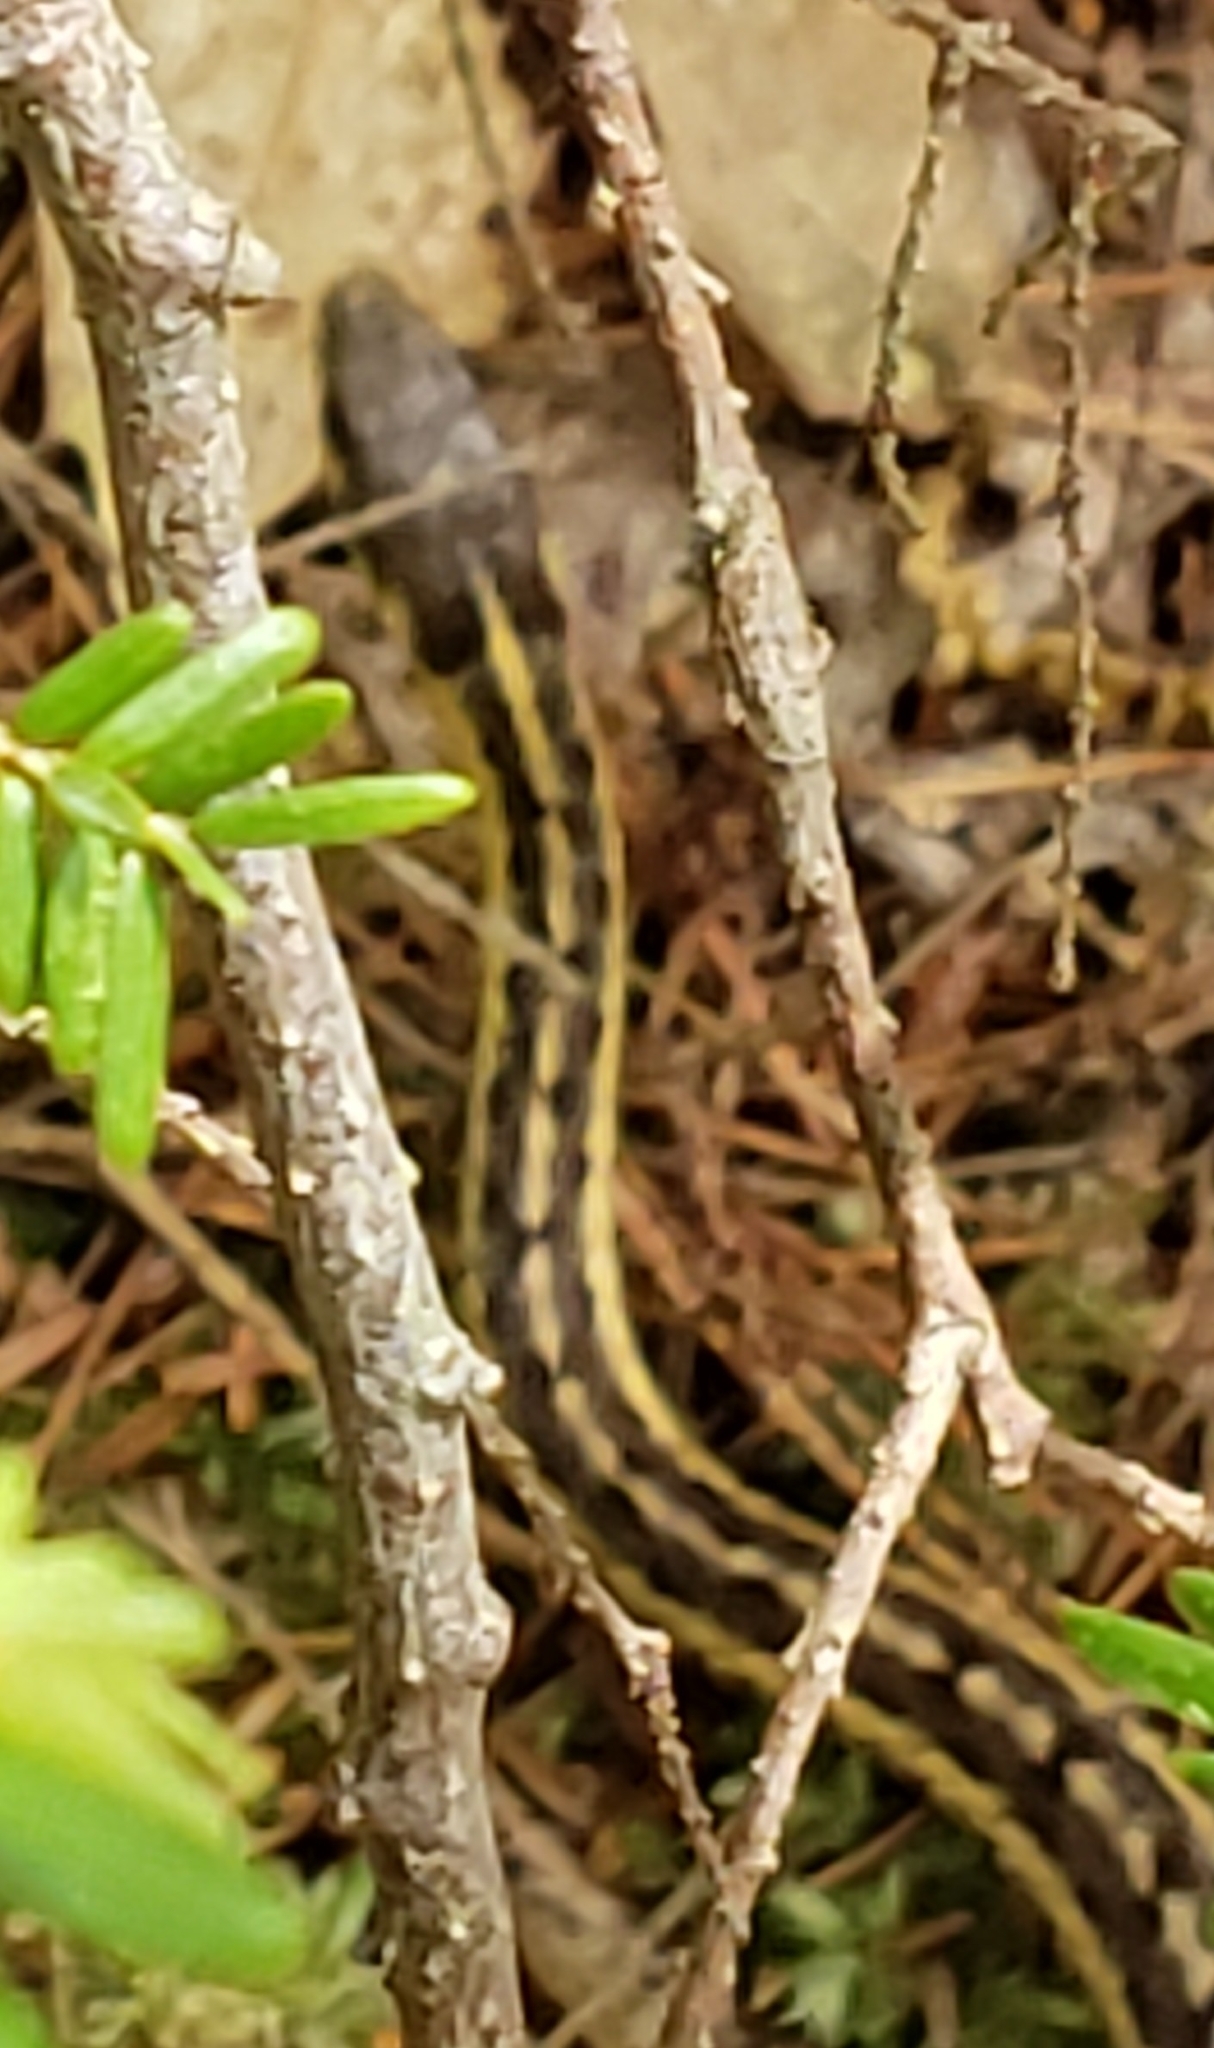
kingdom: Animalia
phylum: Chordata
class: Squamata
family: Colubridae
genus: Thamnophis
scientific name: Thamnophis sirtalis
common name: Common garter snake
